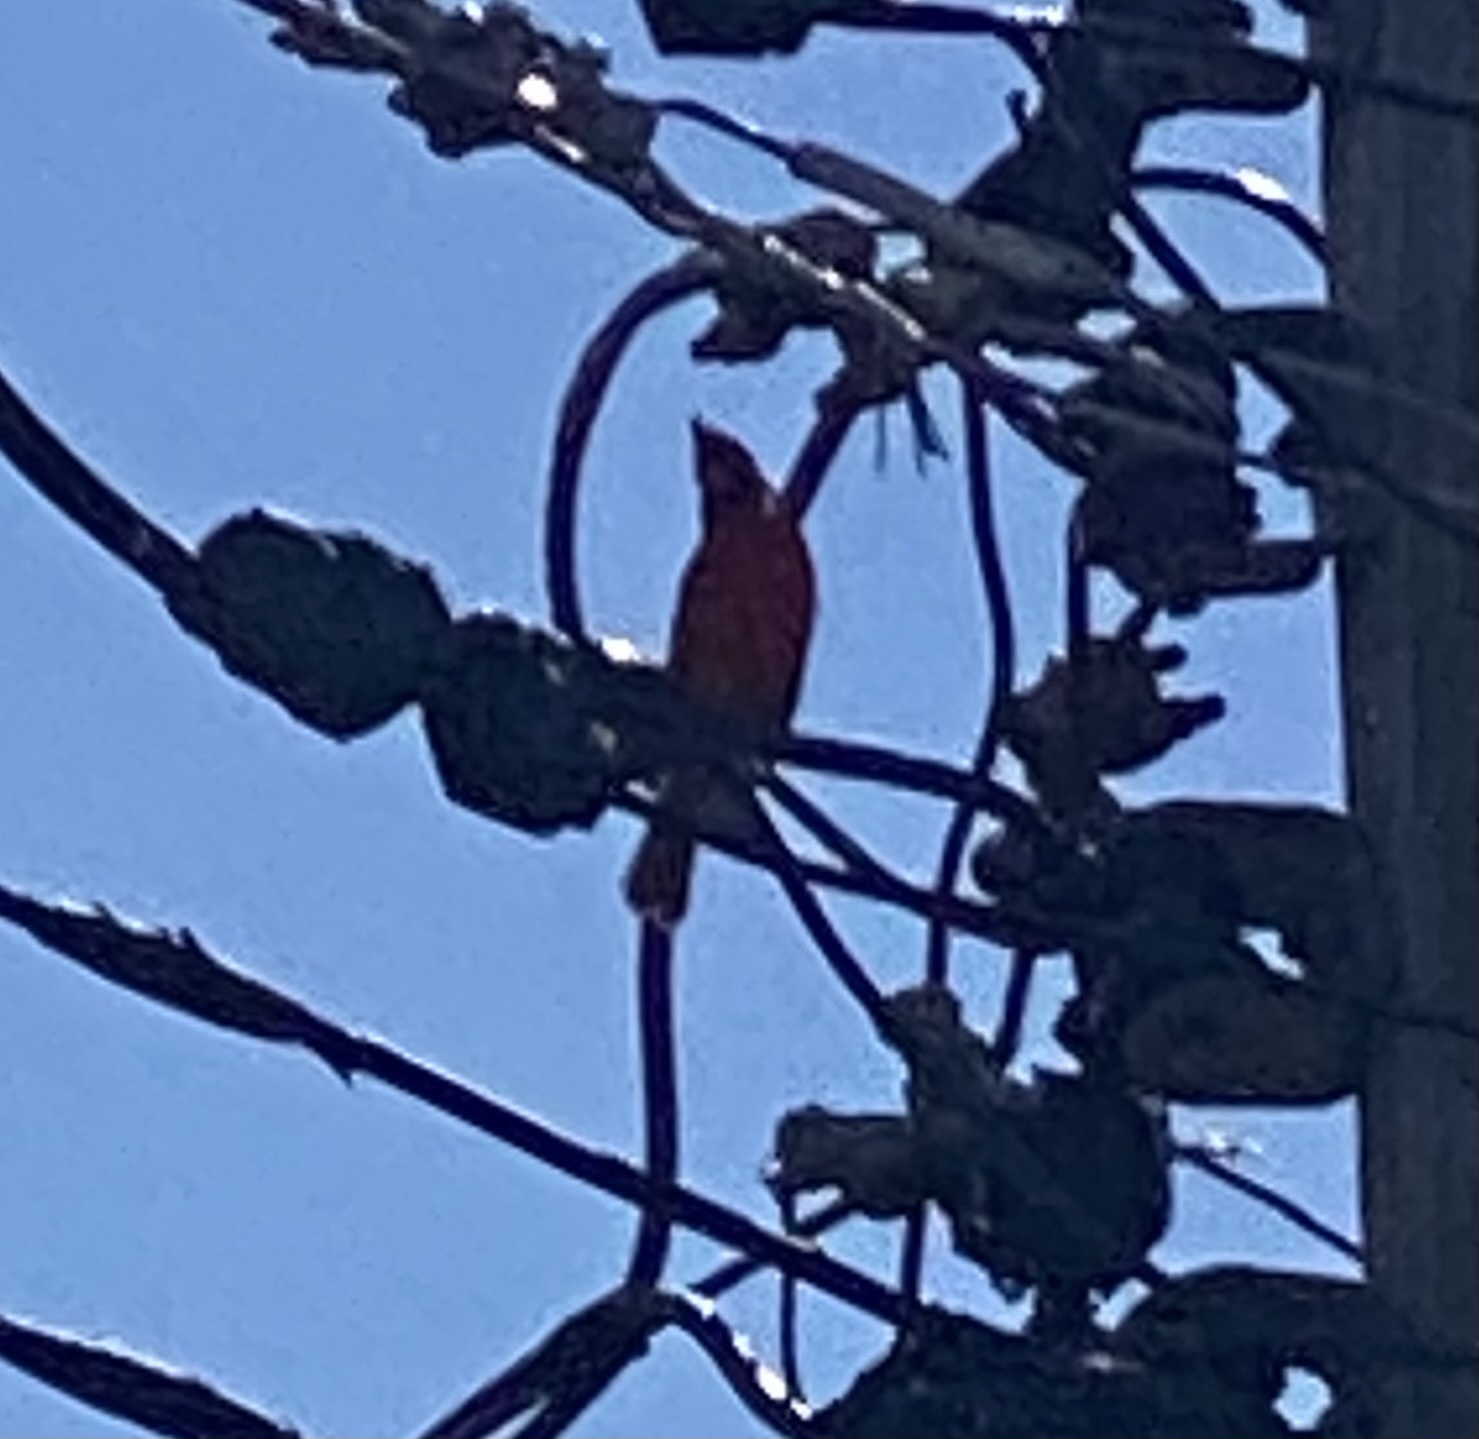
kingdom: Animalia
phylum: Chordata
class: Aves
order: Passeriformes
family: Cardinalidae
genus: Cardinalis
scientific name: Cardinalis cardinalis
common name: Northern cardinal
